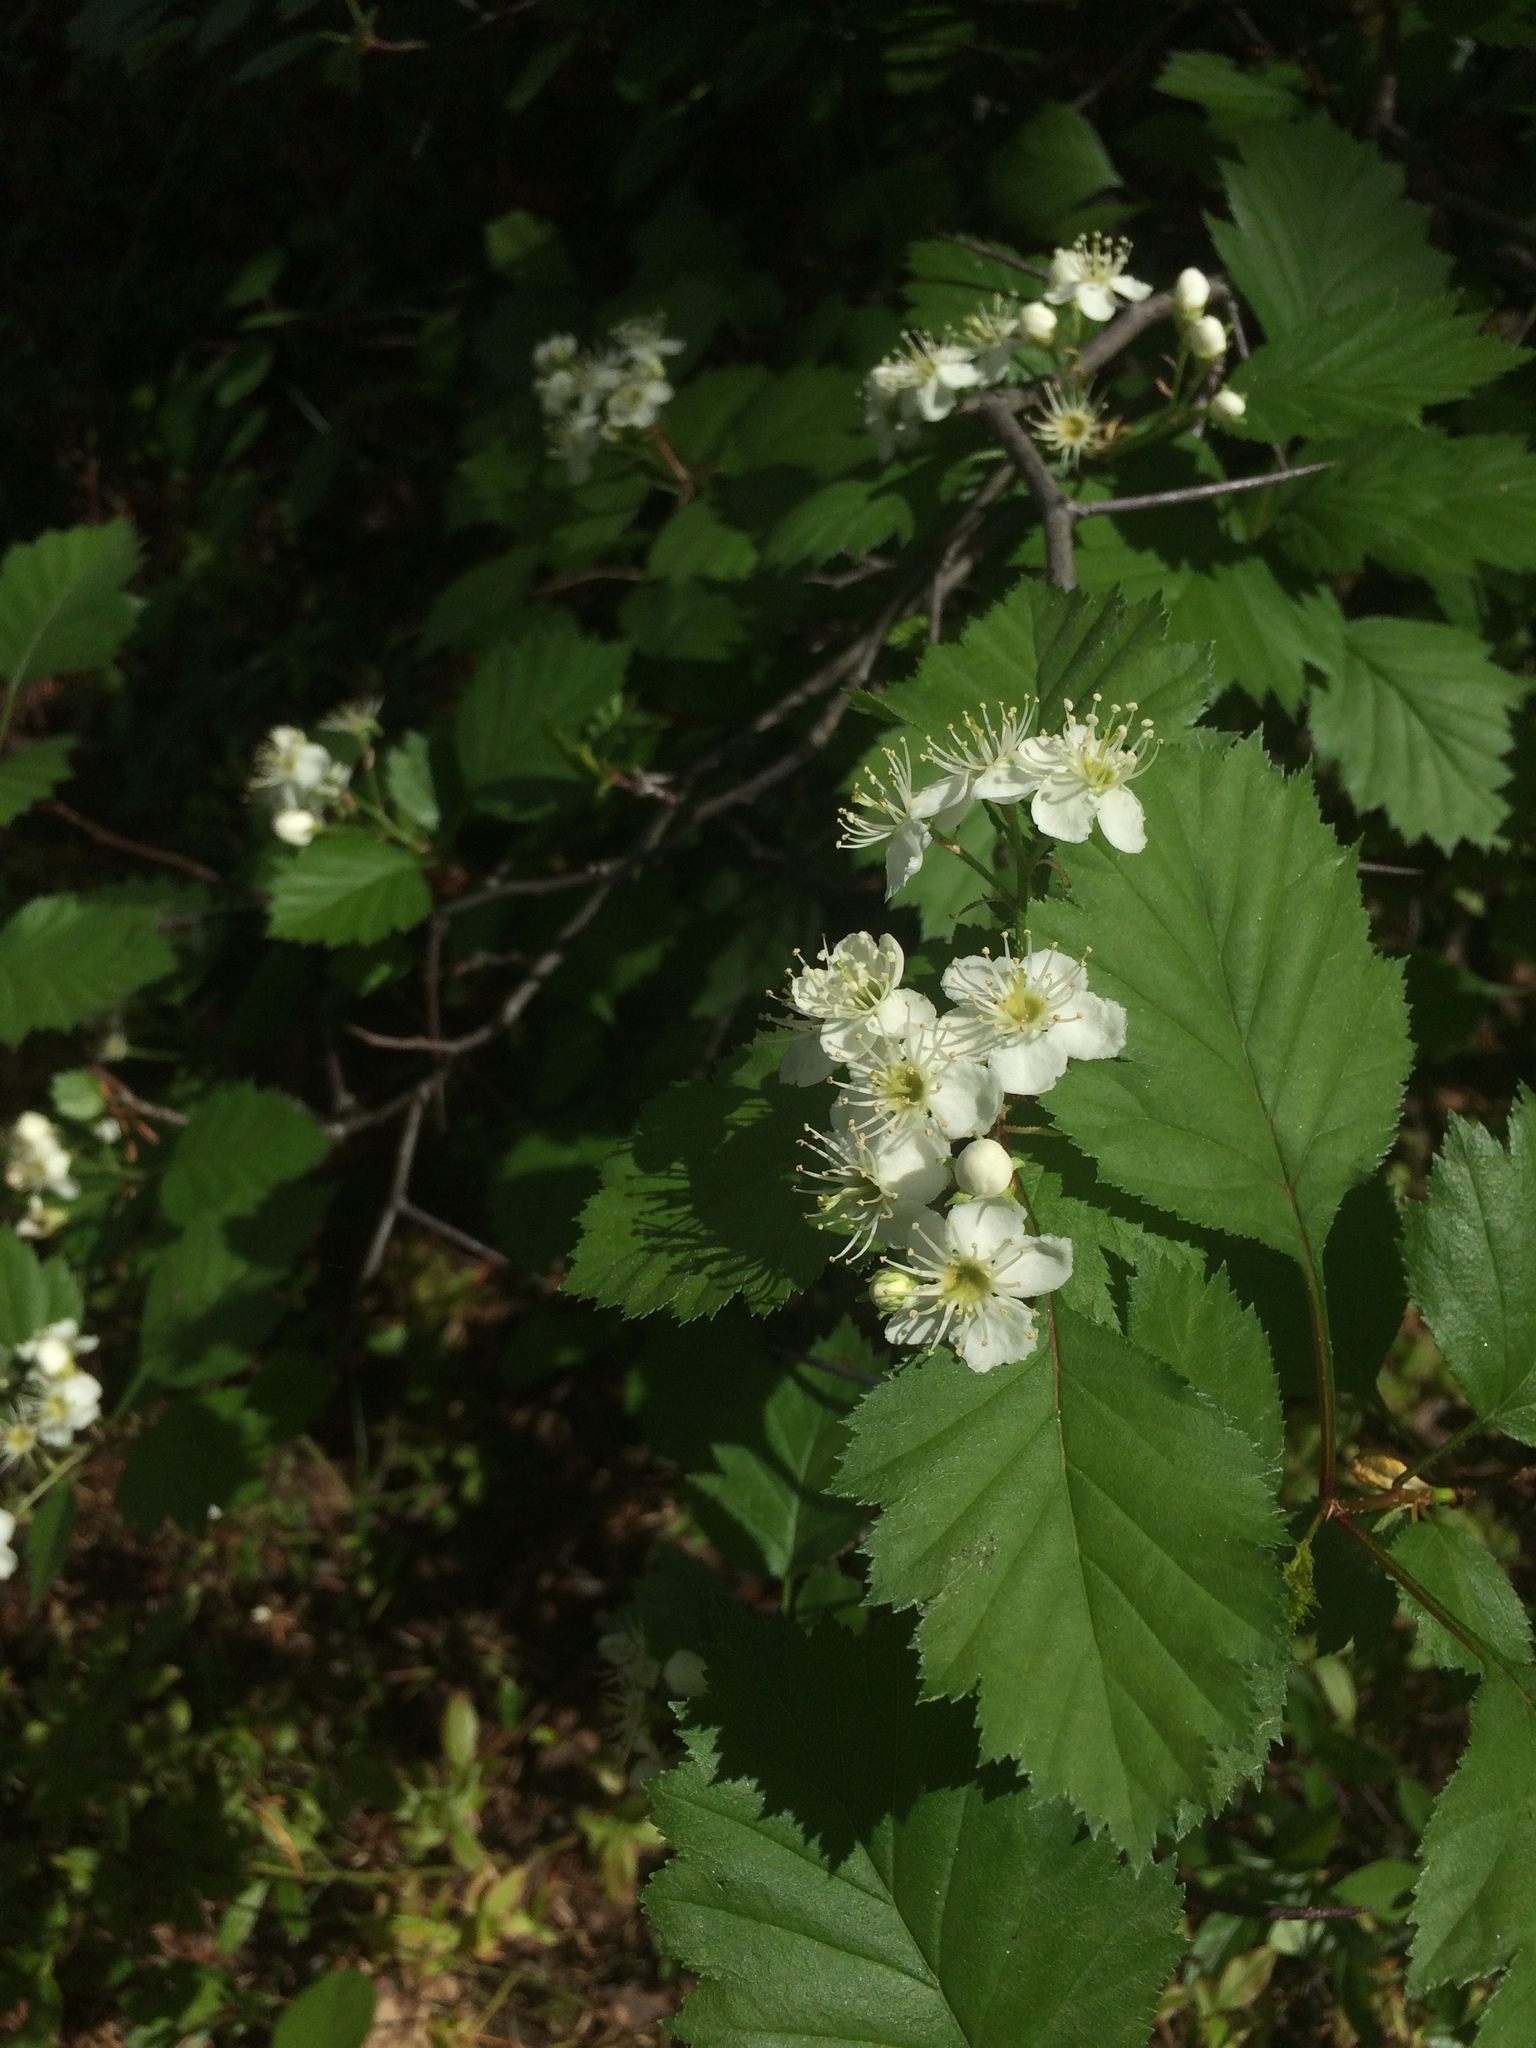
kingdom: Plantae
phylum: Tracheophyta
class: Magnoliopsida
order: Rosales
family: Rosaceae
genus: Crataegus
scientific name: Crataegus irrasa
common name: Unshorn hawthorn
